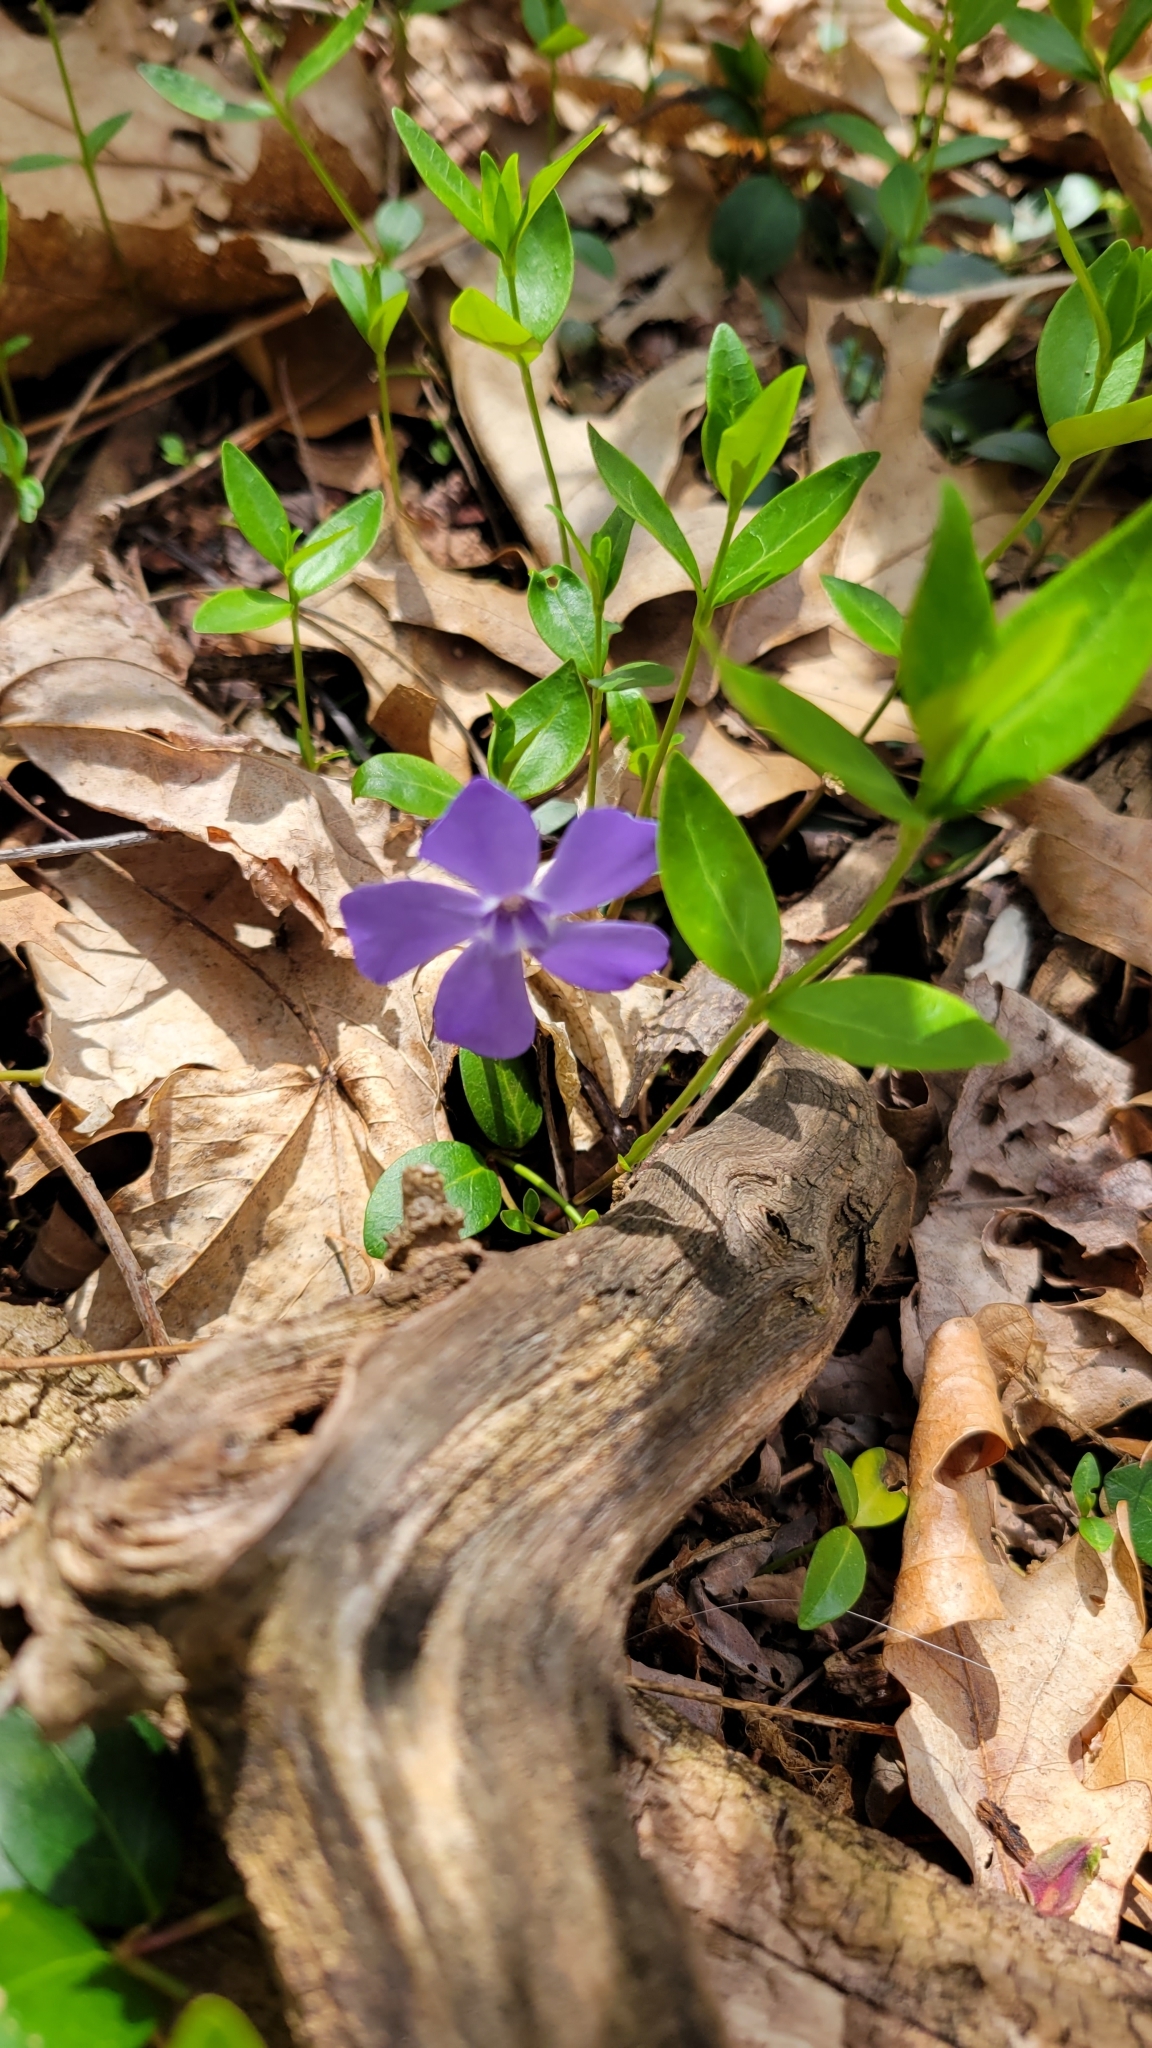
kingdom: Plantae
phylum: Tracheophyta
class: Magnoliopsida
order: Gentianales
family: Apocynaceae
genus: Vinca
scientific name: Vinca minor
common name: Lesser periwinkle
